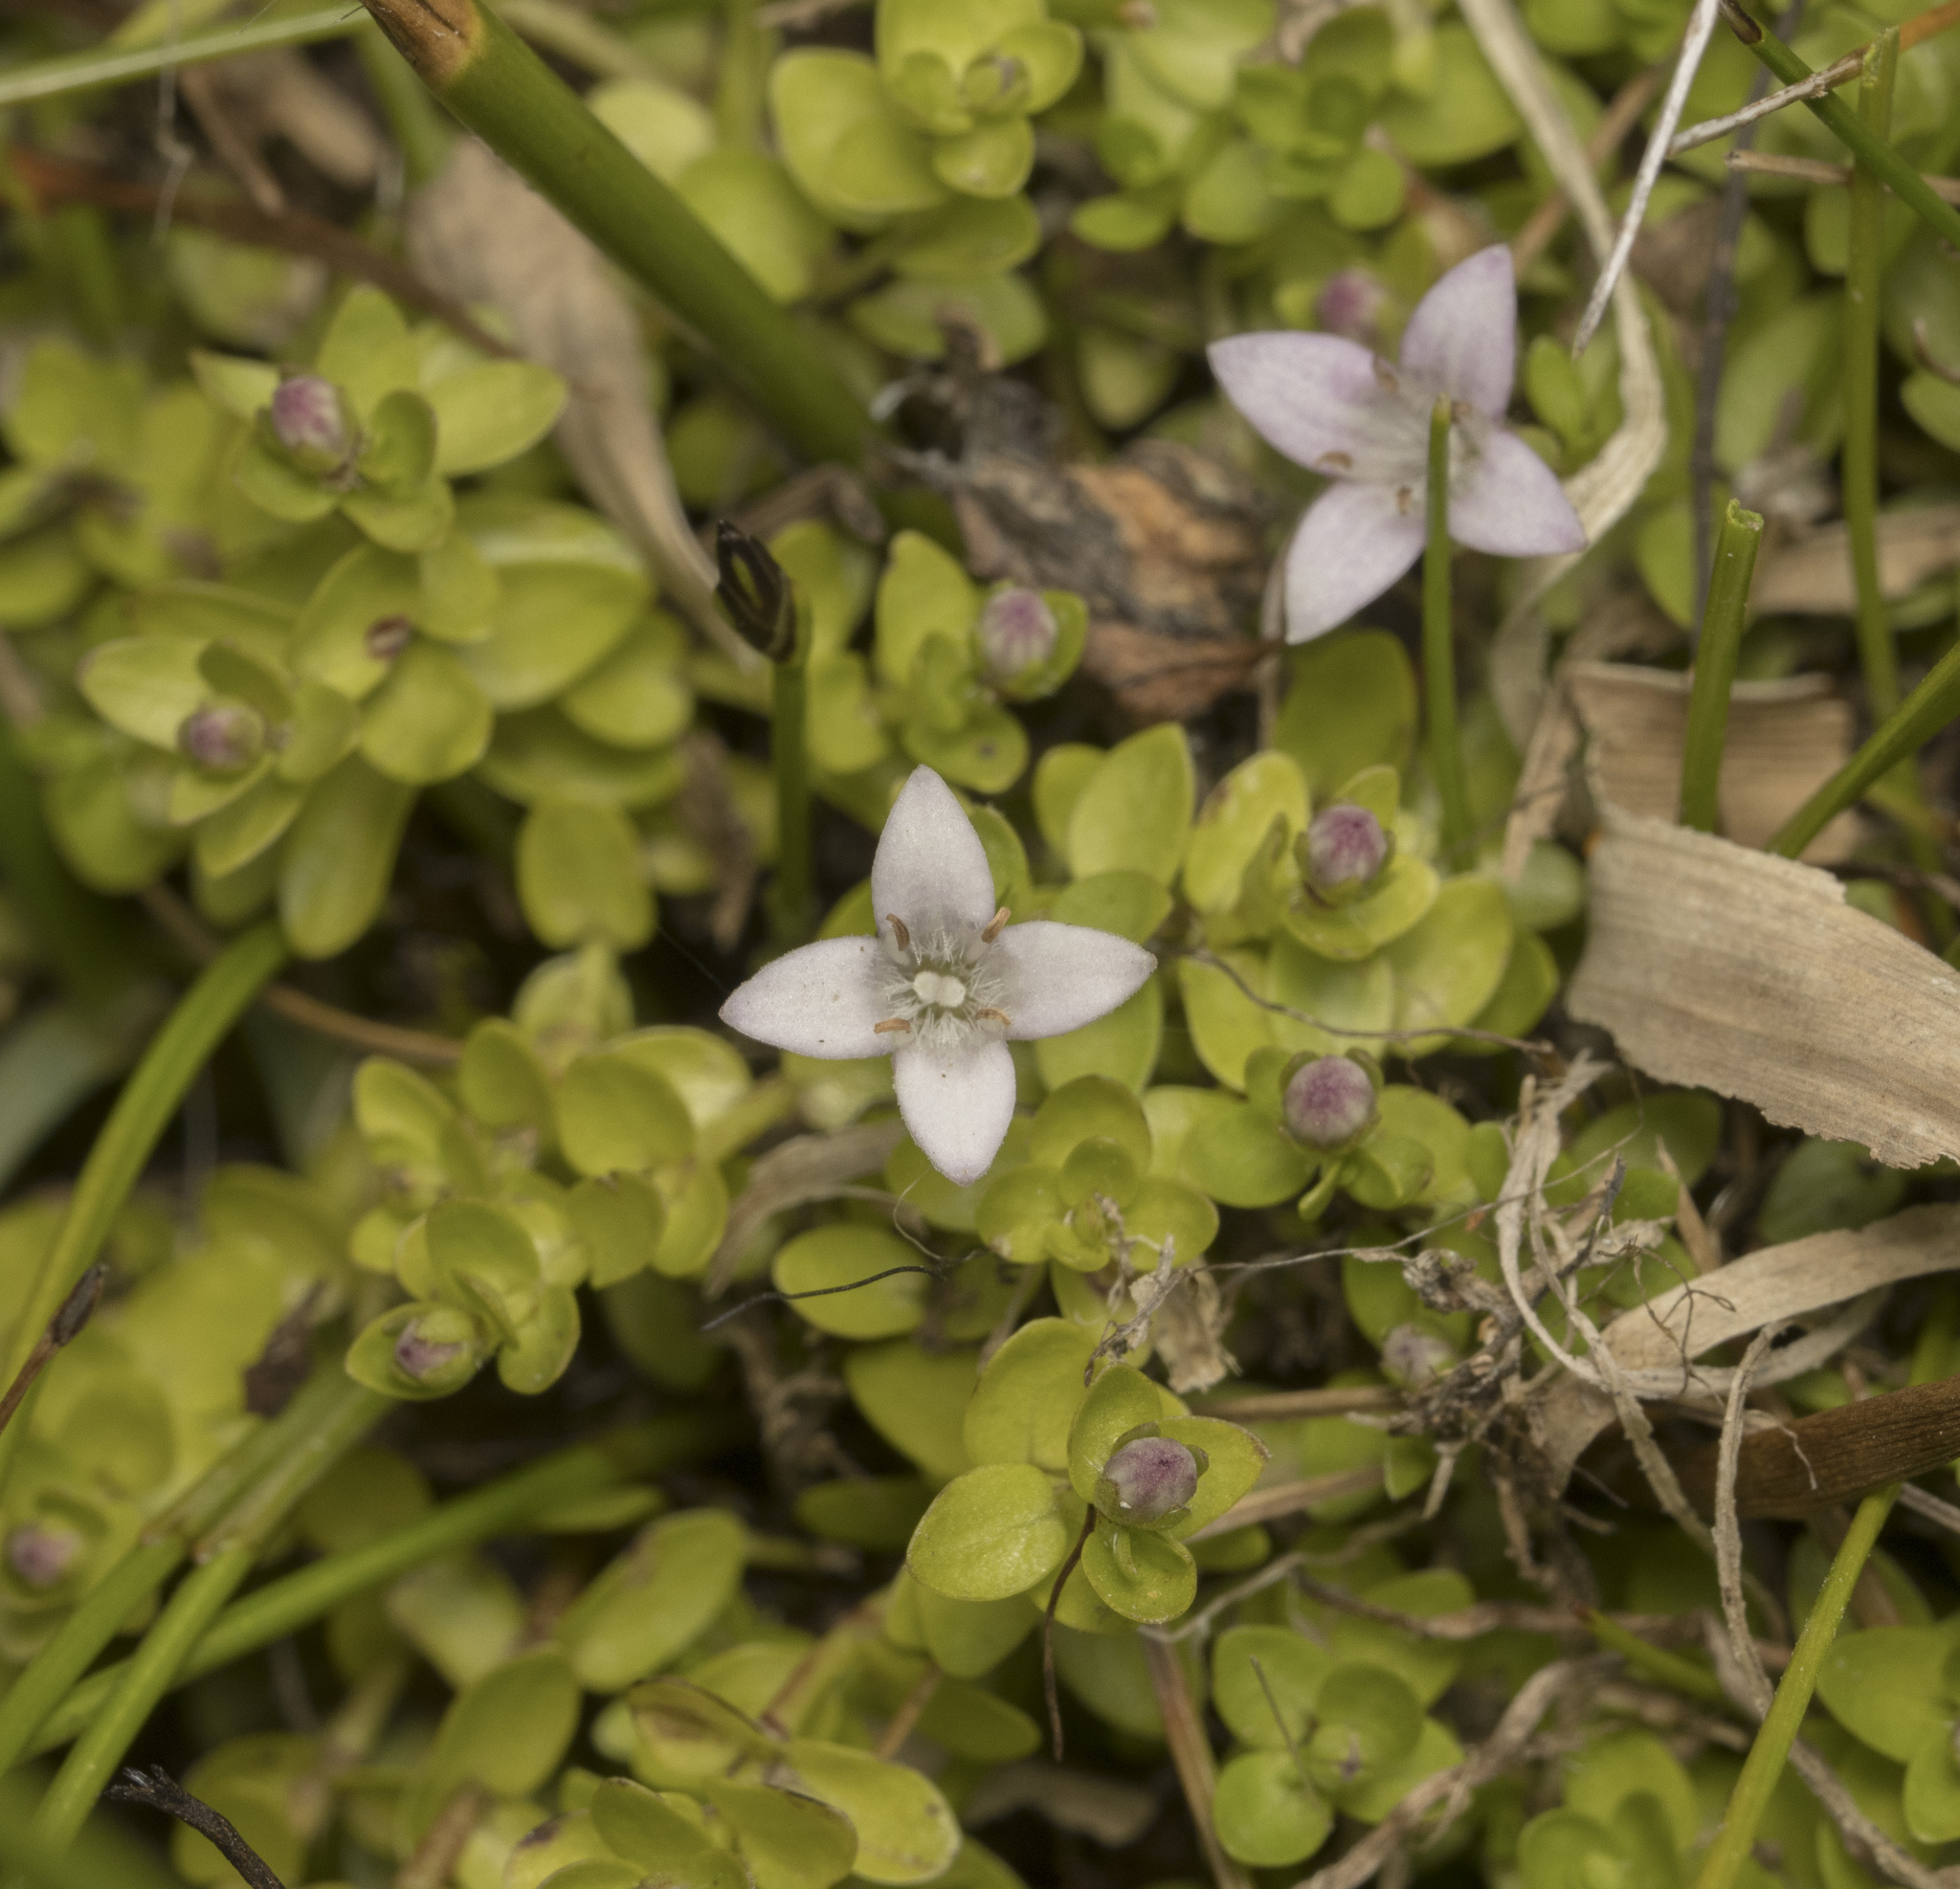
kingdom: Plantae
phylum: Tracheophyta
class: Magnoliopsida
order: Gentianales
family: Rubiaceae
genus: Oldenlandia
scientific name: Oldenlandia salzmannii
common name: Salzmann's mille graines
